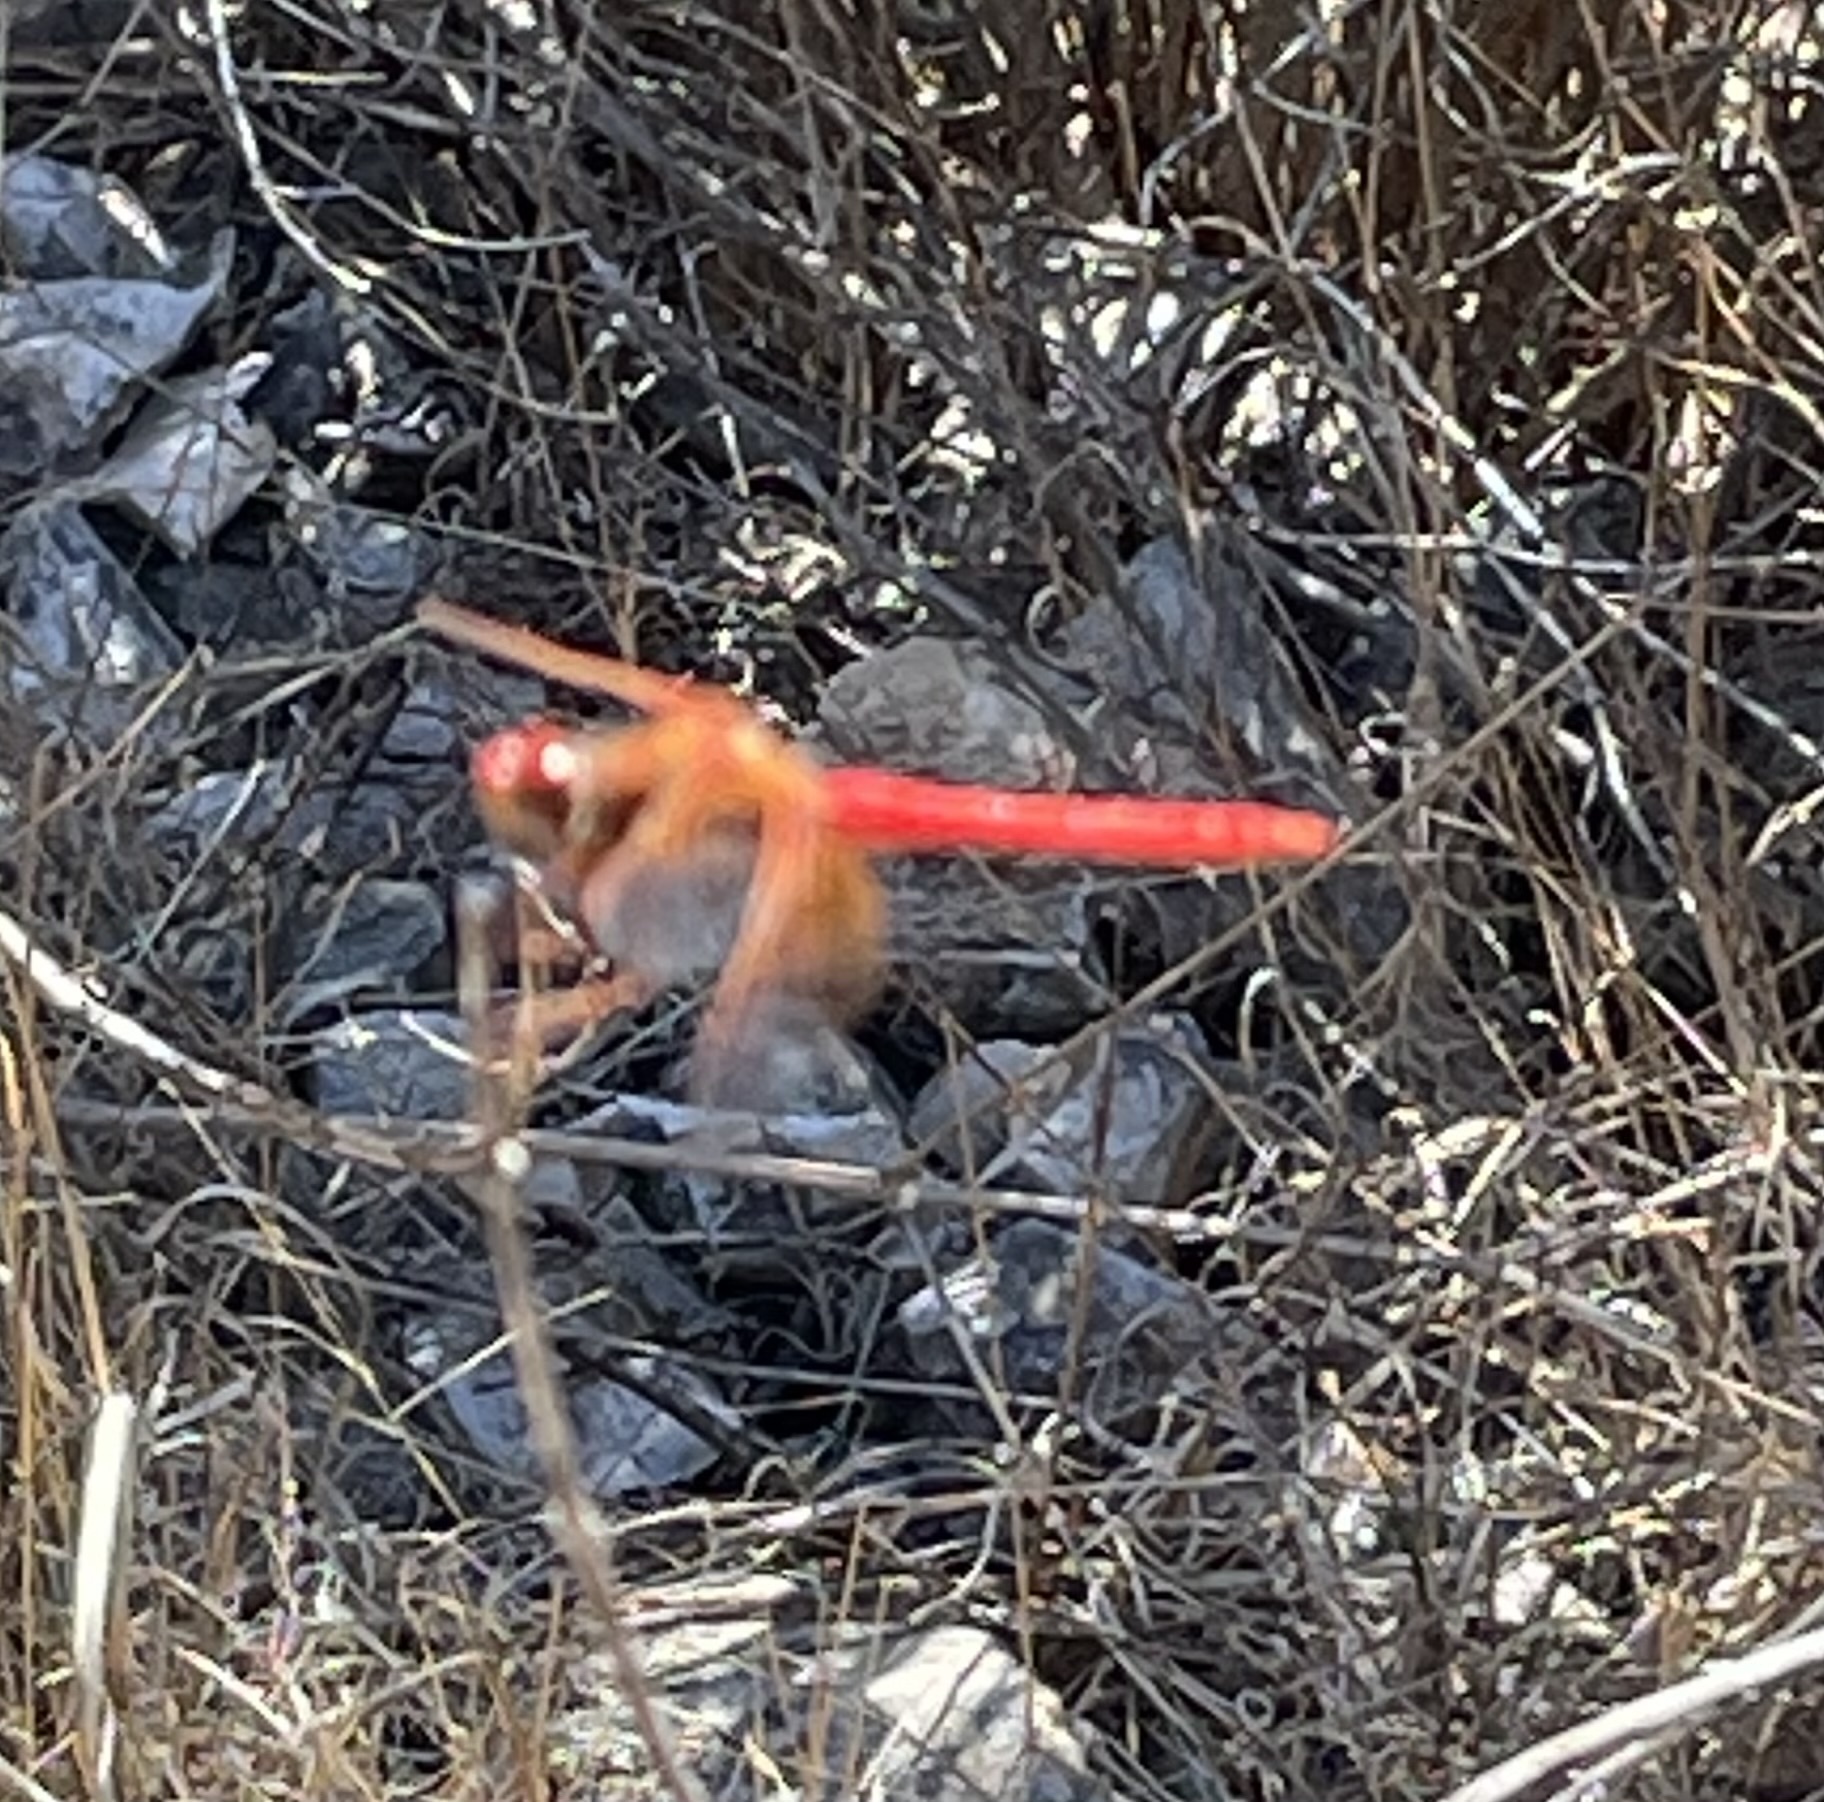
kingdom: Animalia
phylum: Arthropoda
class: Insecta
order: Odonata
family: Libellulidae
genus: Sympetrum
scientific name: Sympetrum illotum
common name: Cardinal meadowhawk
